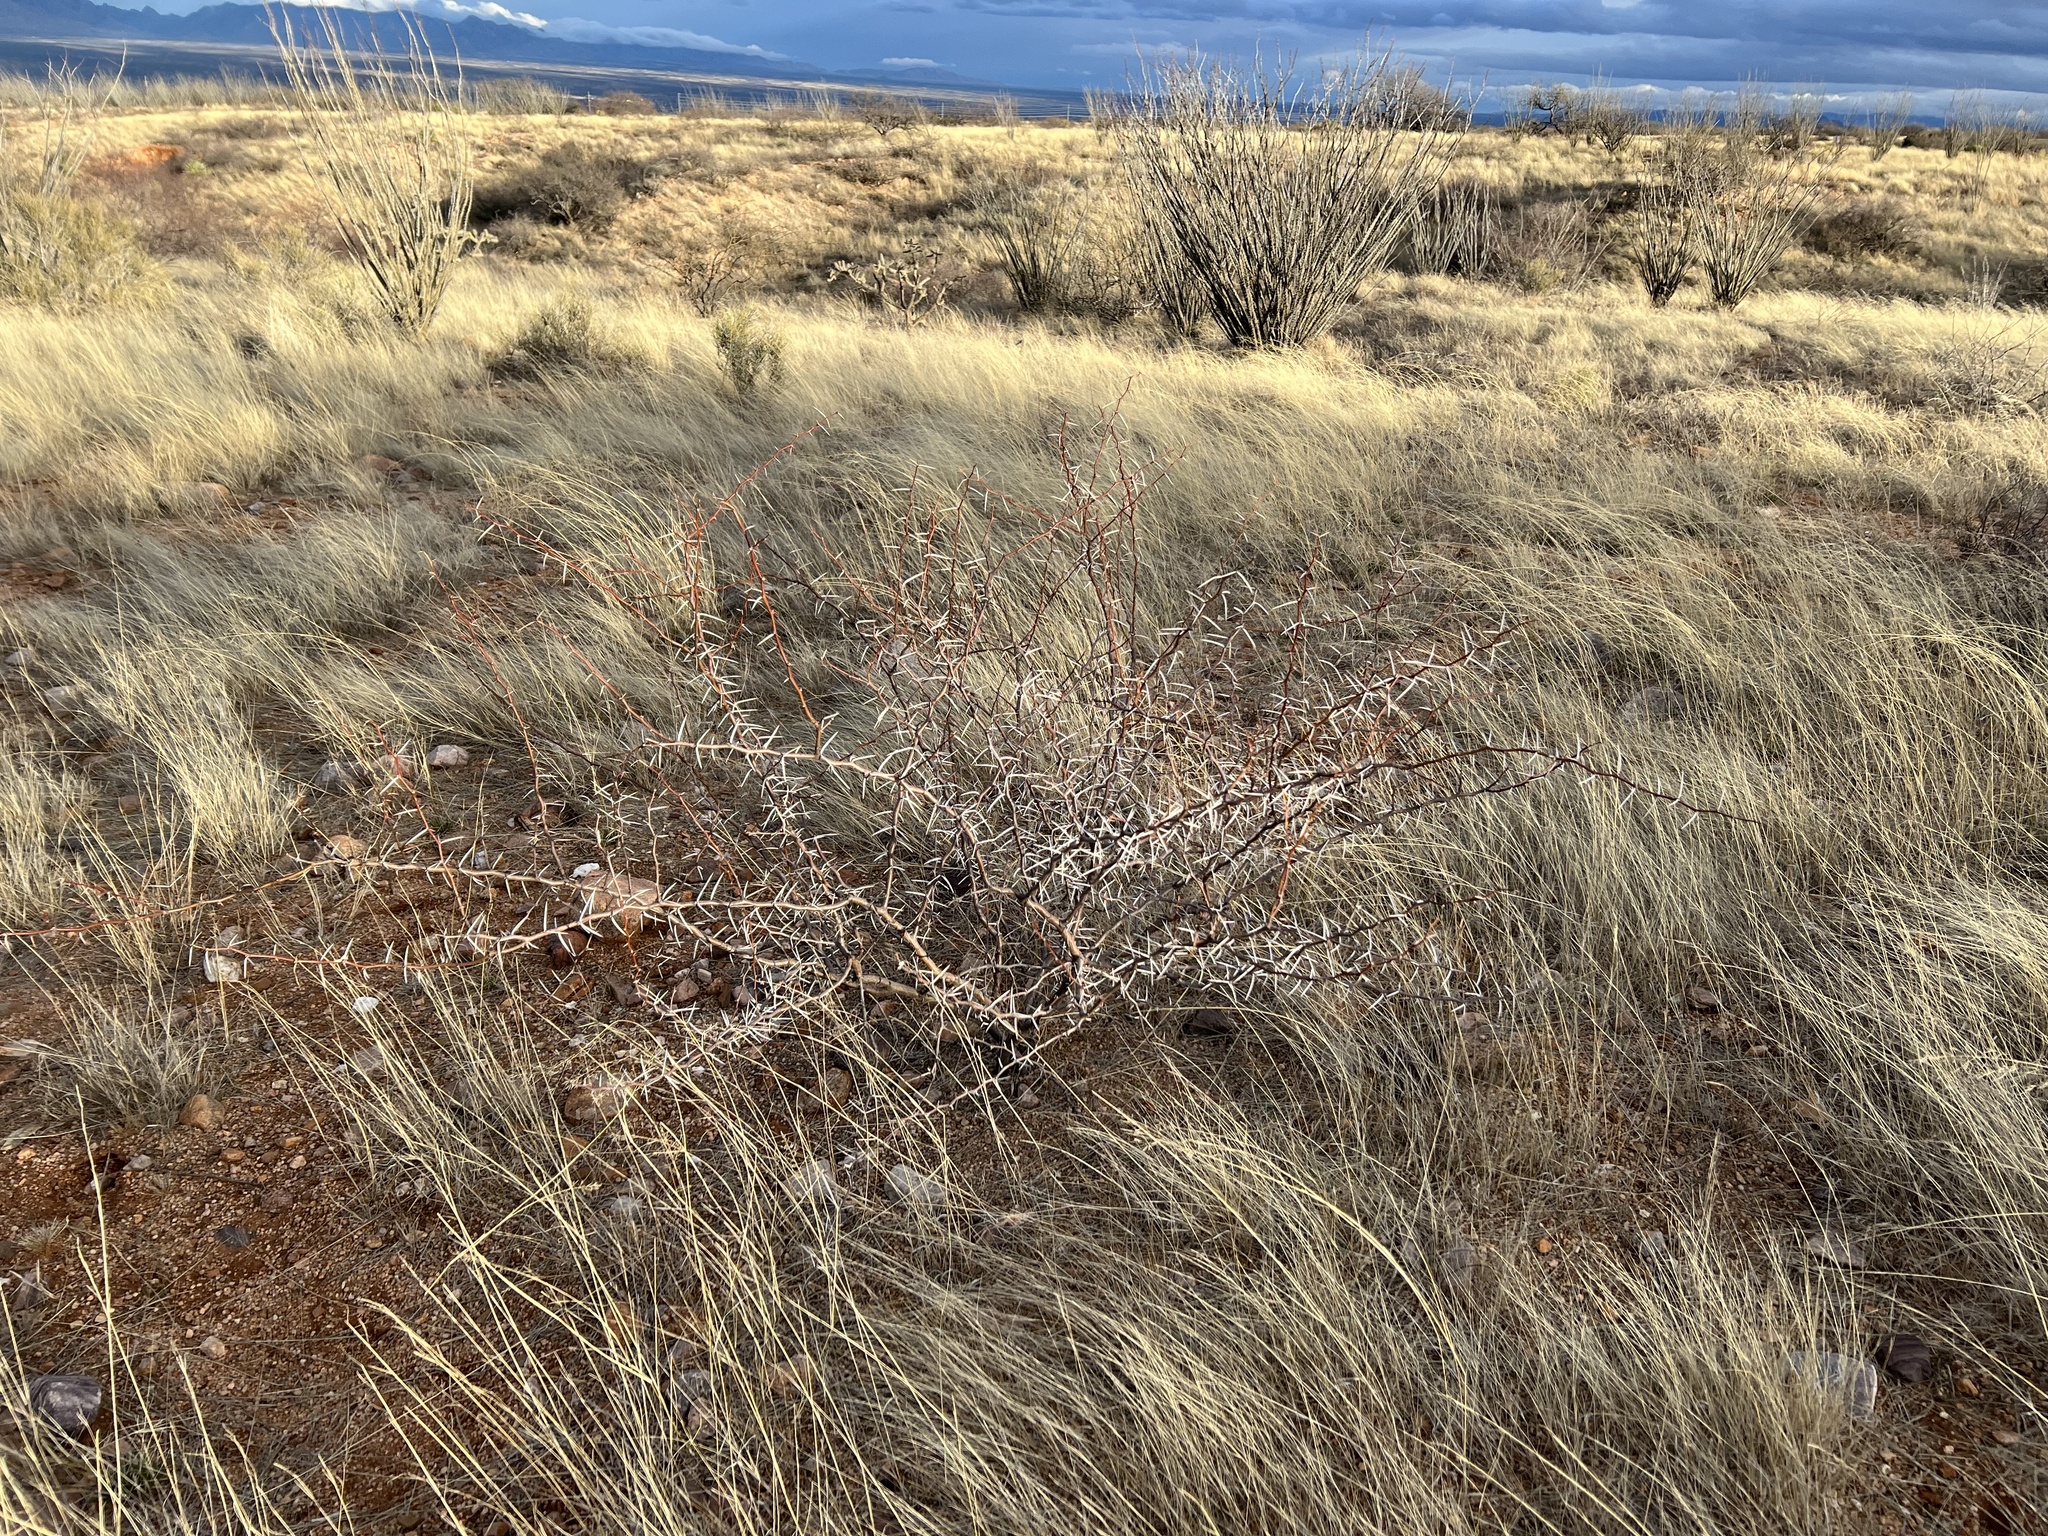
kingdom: Plantae
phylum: Tracheophyta
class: Magnoliopsida
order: Fabales
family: Fabaceae
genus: Vachellia
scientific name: Vachellia constricta
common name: Mescat acacia
